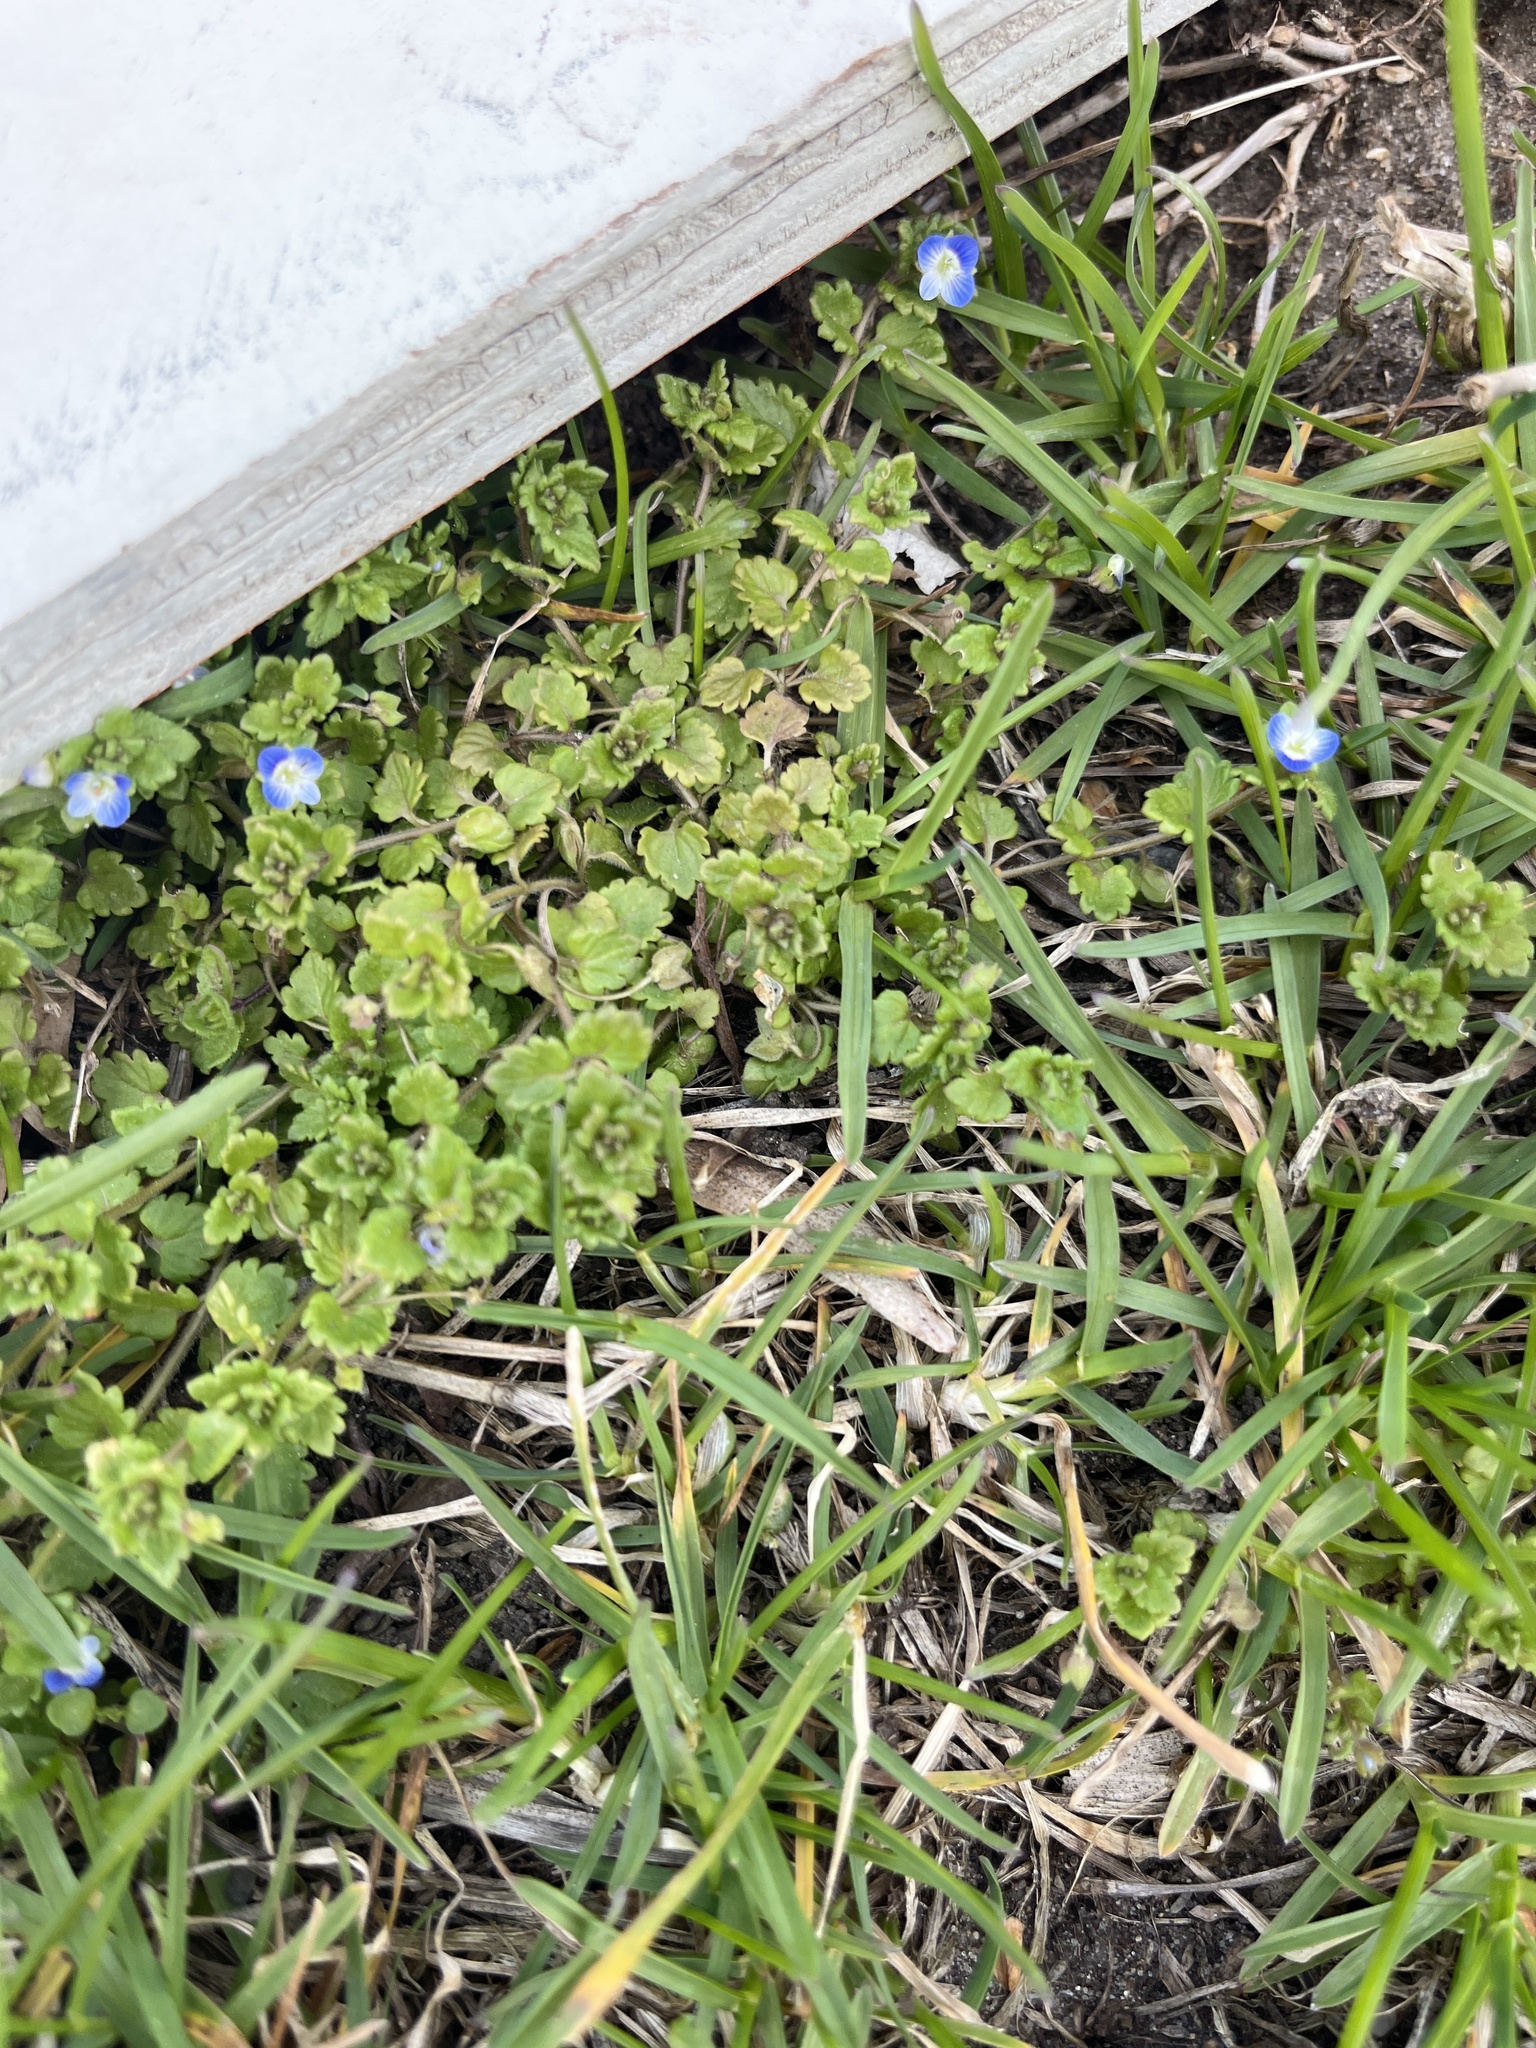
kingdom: Plantae
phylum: Tracheophyta
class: Magnoliopsida
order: Lamiales
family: Plantaginaceae
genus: Veronica
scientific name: Veronica polita
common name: Grey field-speedwell
